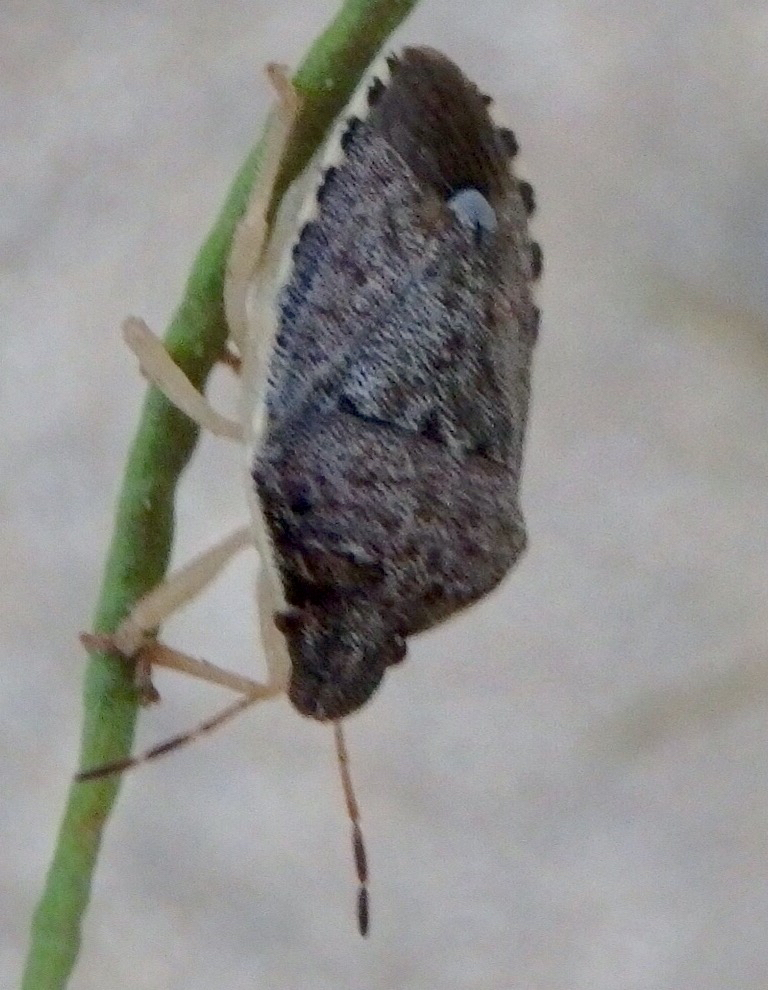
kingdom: Animalia
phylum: Arthropoda
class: Insecta
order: Hemiptera
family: Pentatomidae
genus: Holcostethus
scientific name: Holcostethus abbreviatus
